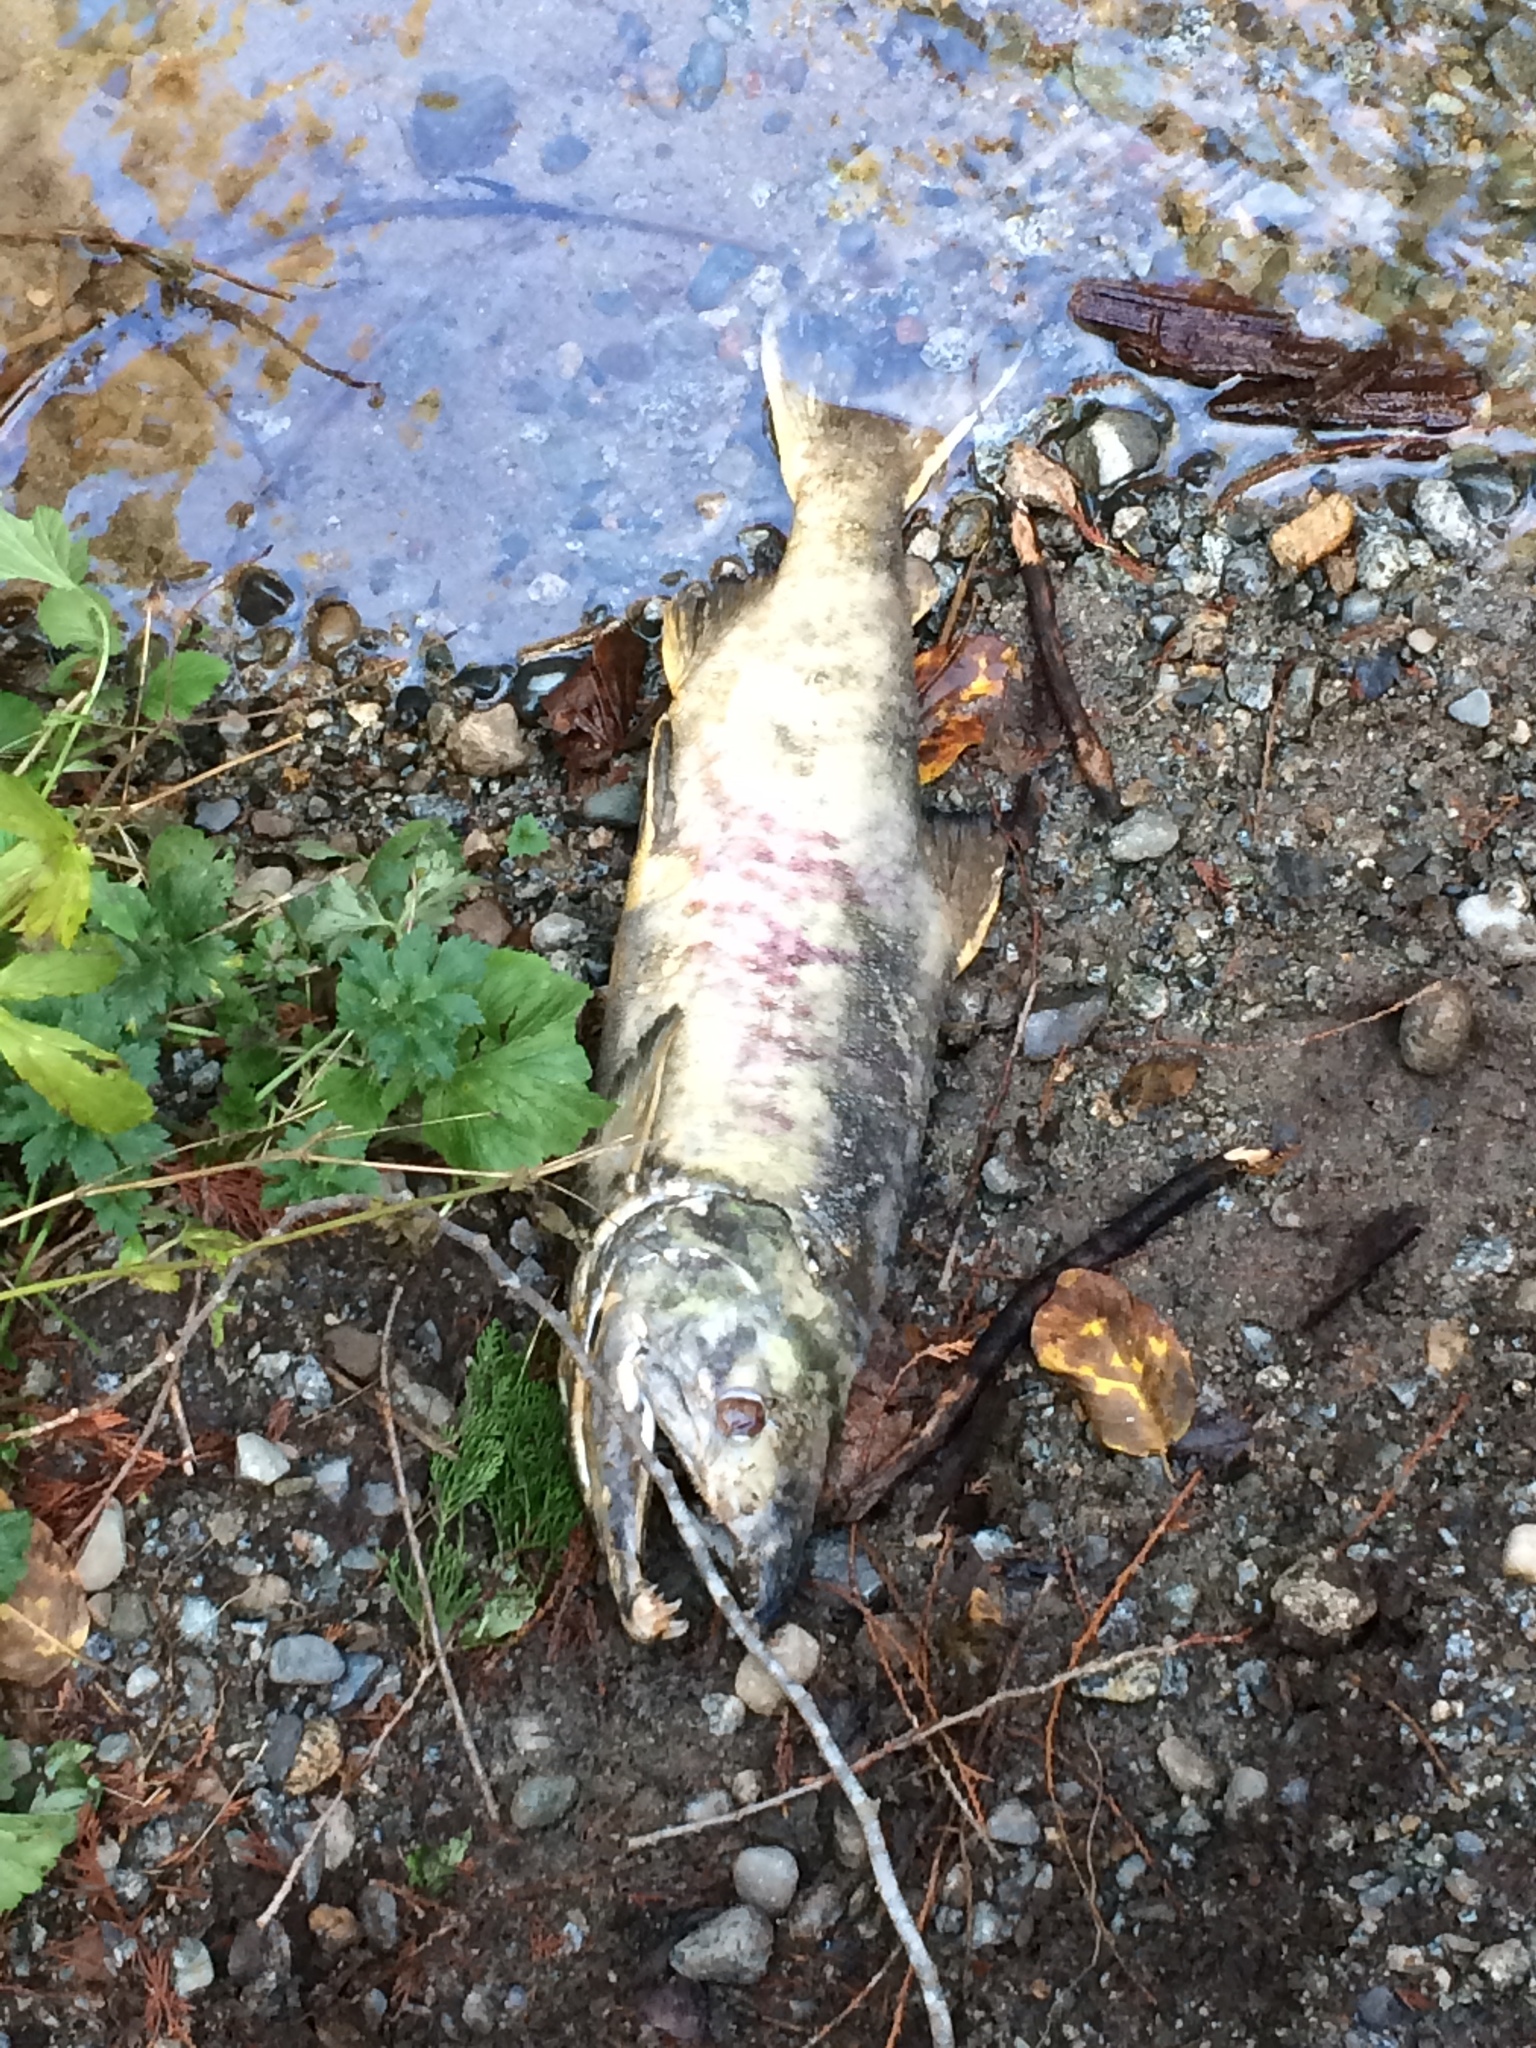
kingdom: Animalia
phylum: Chordata
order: Salmoniformes
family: Salmonidae
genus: Oncorhynchus
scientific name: Oncorhynchus keta
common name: Chum salmon
